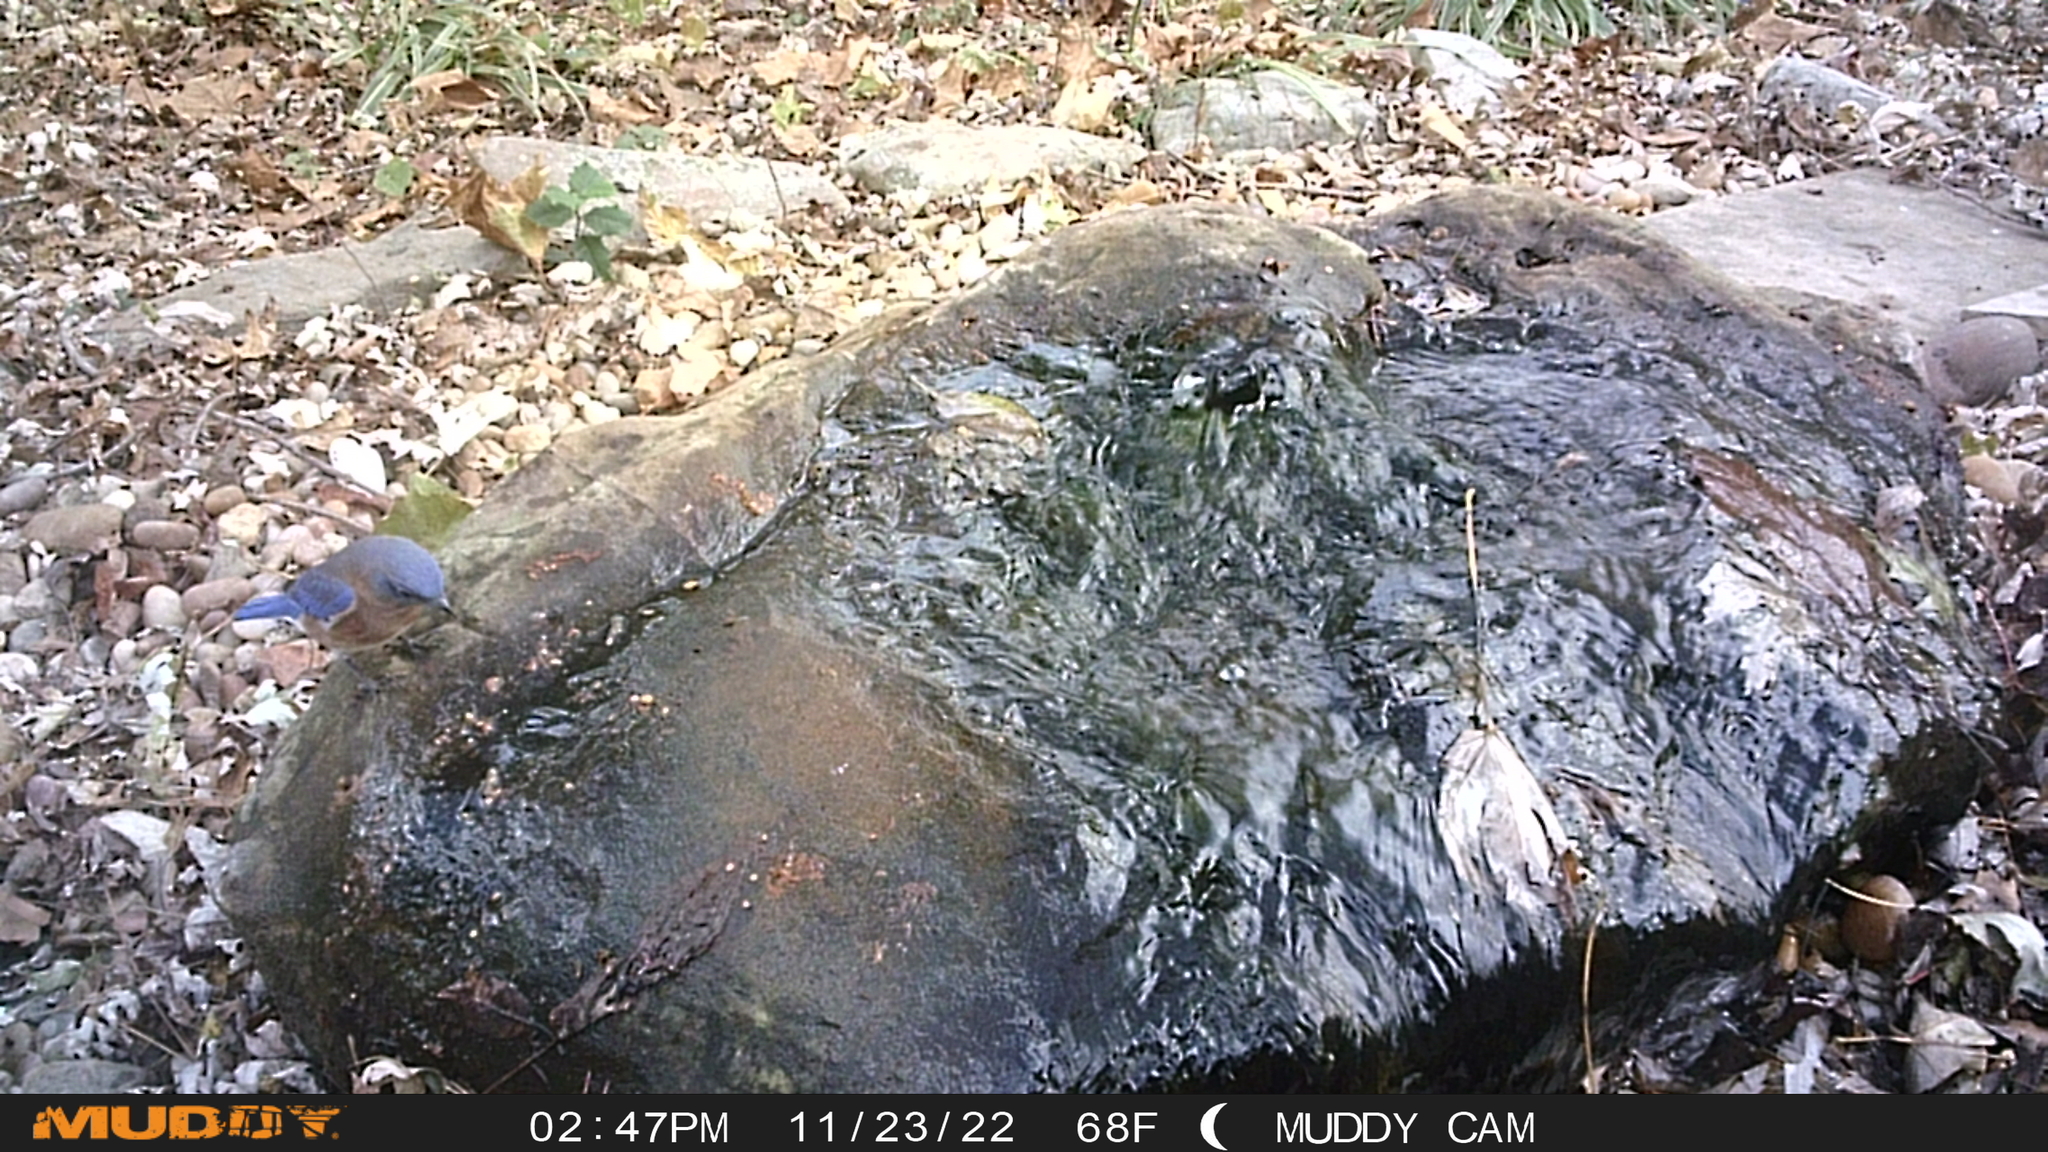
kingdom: Animalia
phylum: Chordata
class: Aves
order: Passeriformes
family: Turdidae
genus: Sialia
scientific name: Sialia sialis
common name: Eastern bluebird
